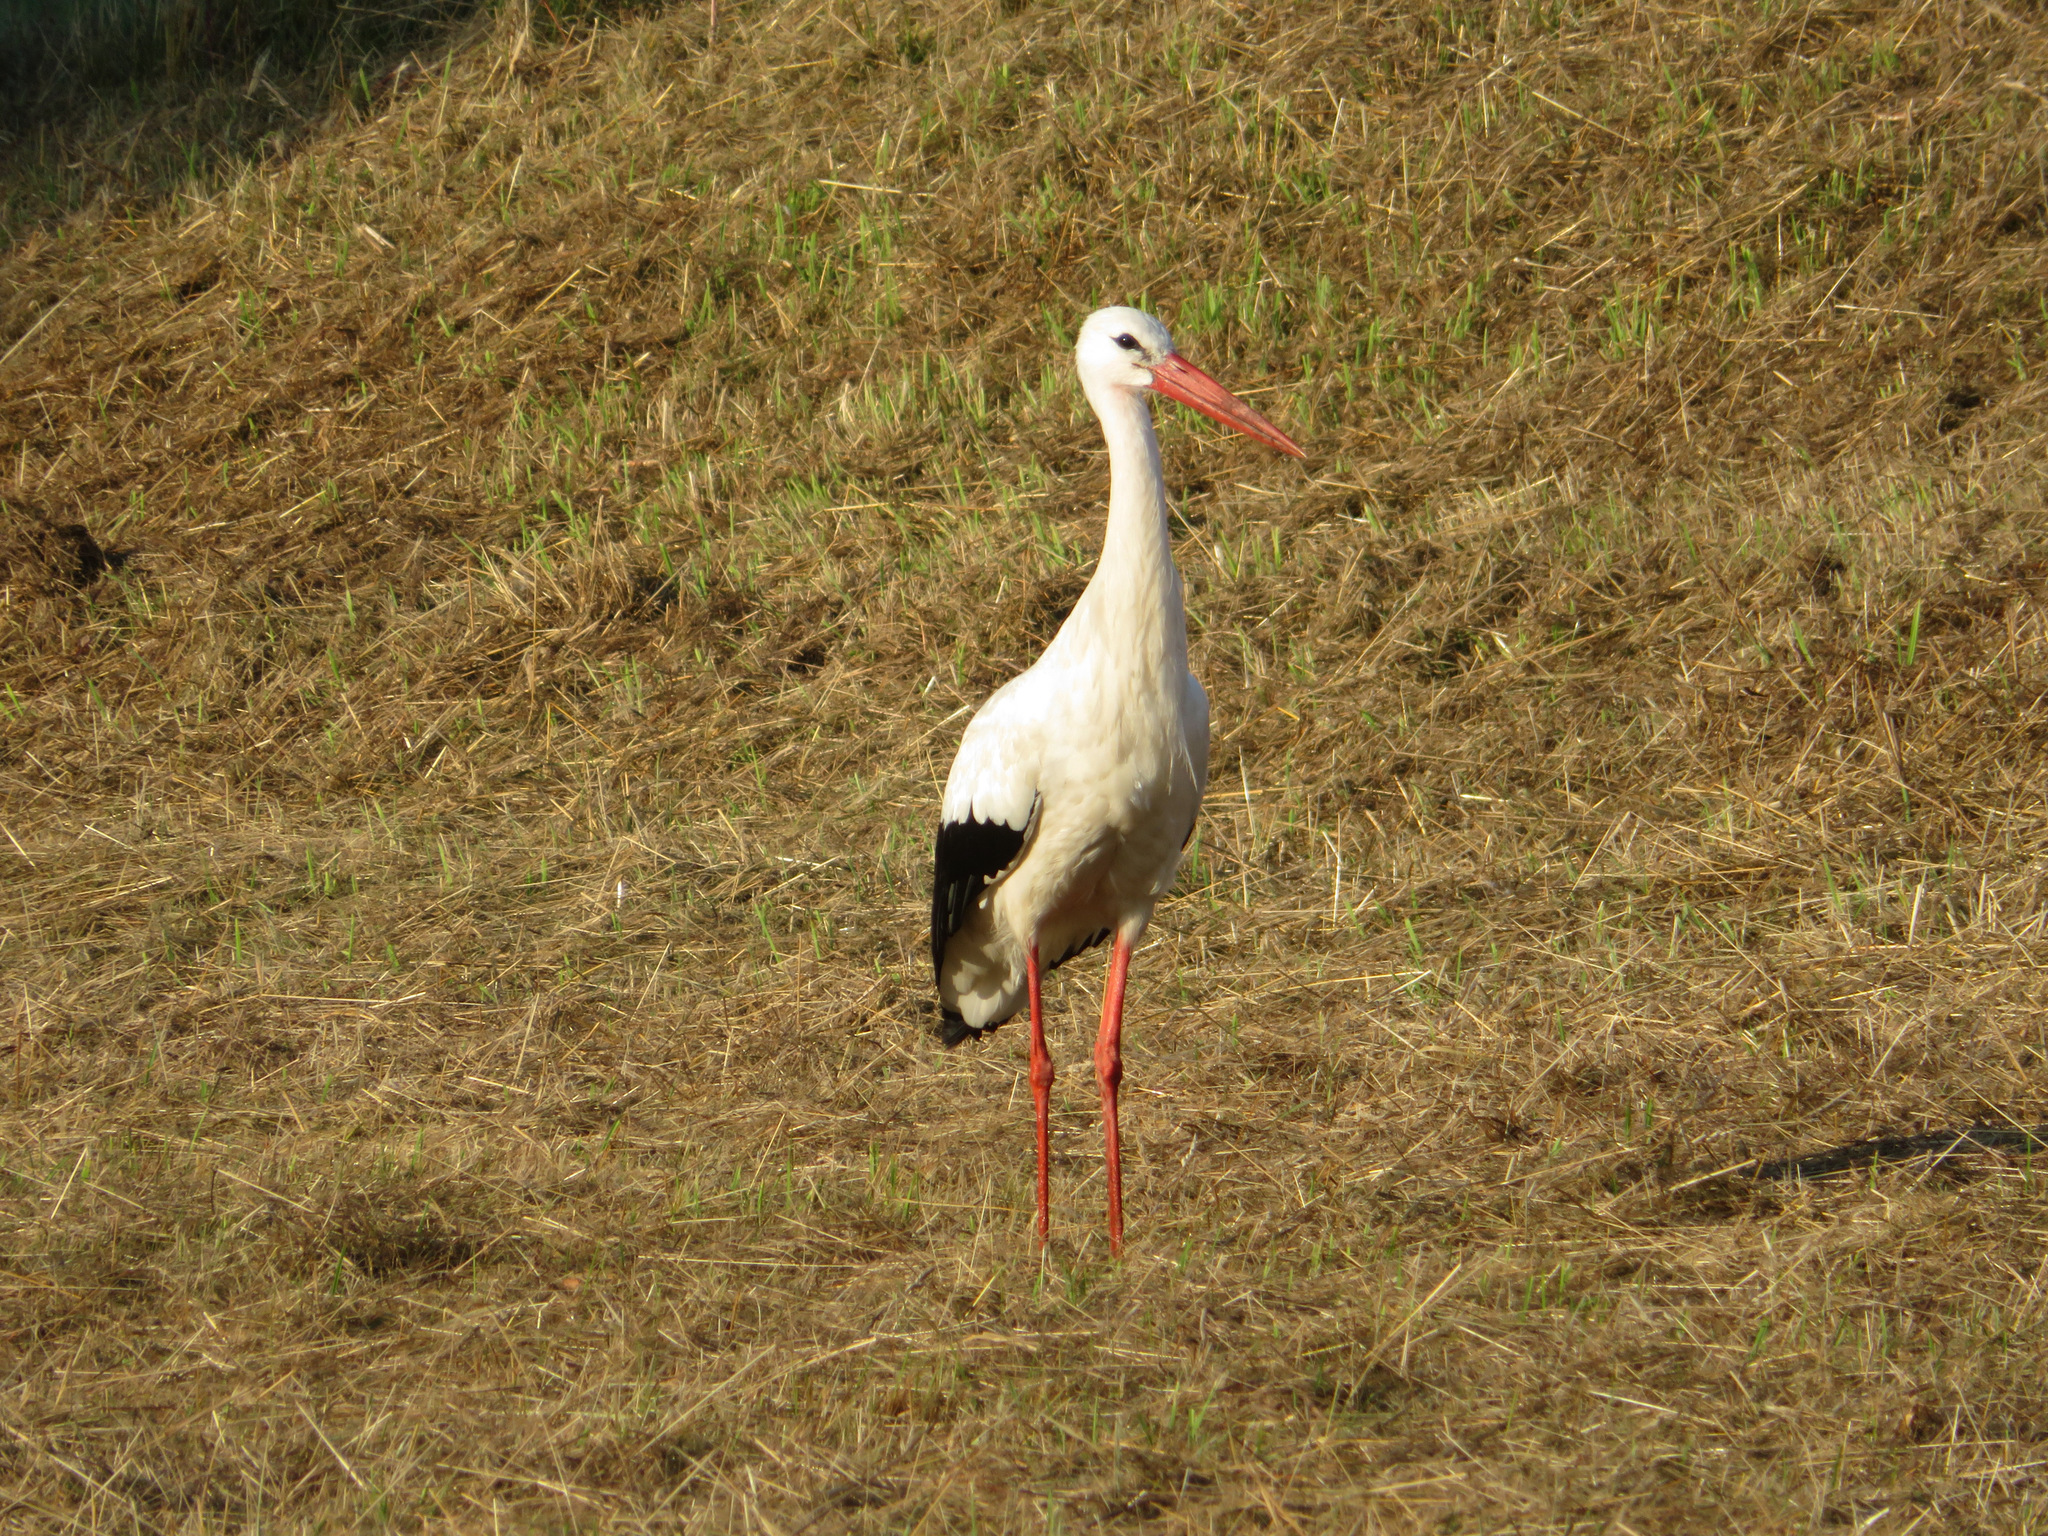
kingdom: Animalia
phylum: Chordata
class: Aves
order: Ciconiiformes
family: Ciconiidae
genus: Ciconia
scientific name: Ciconia ciconia
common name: White stork
